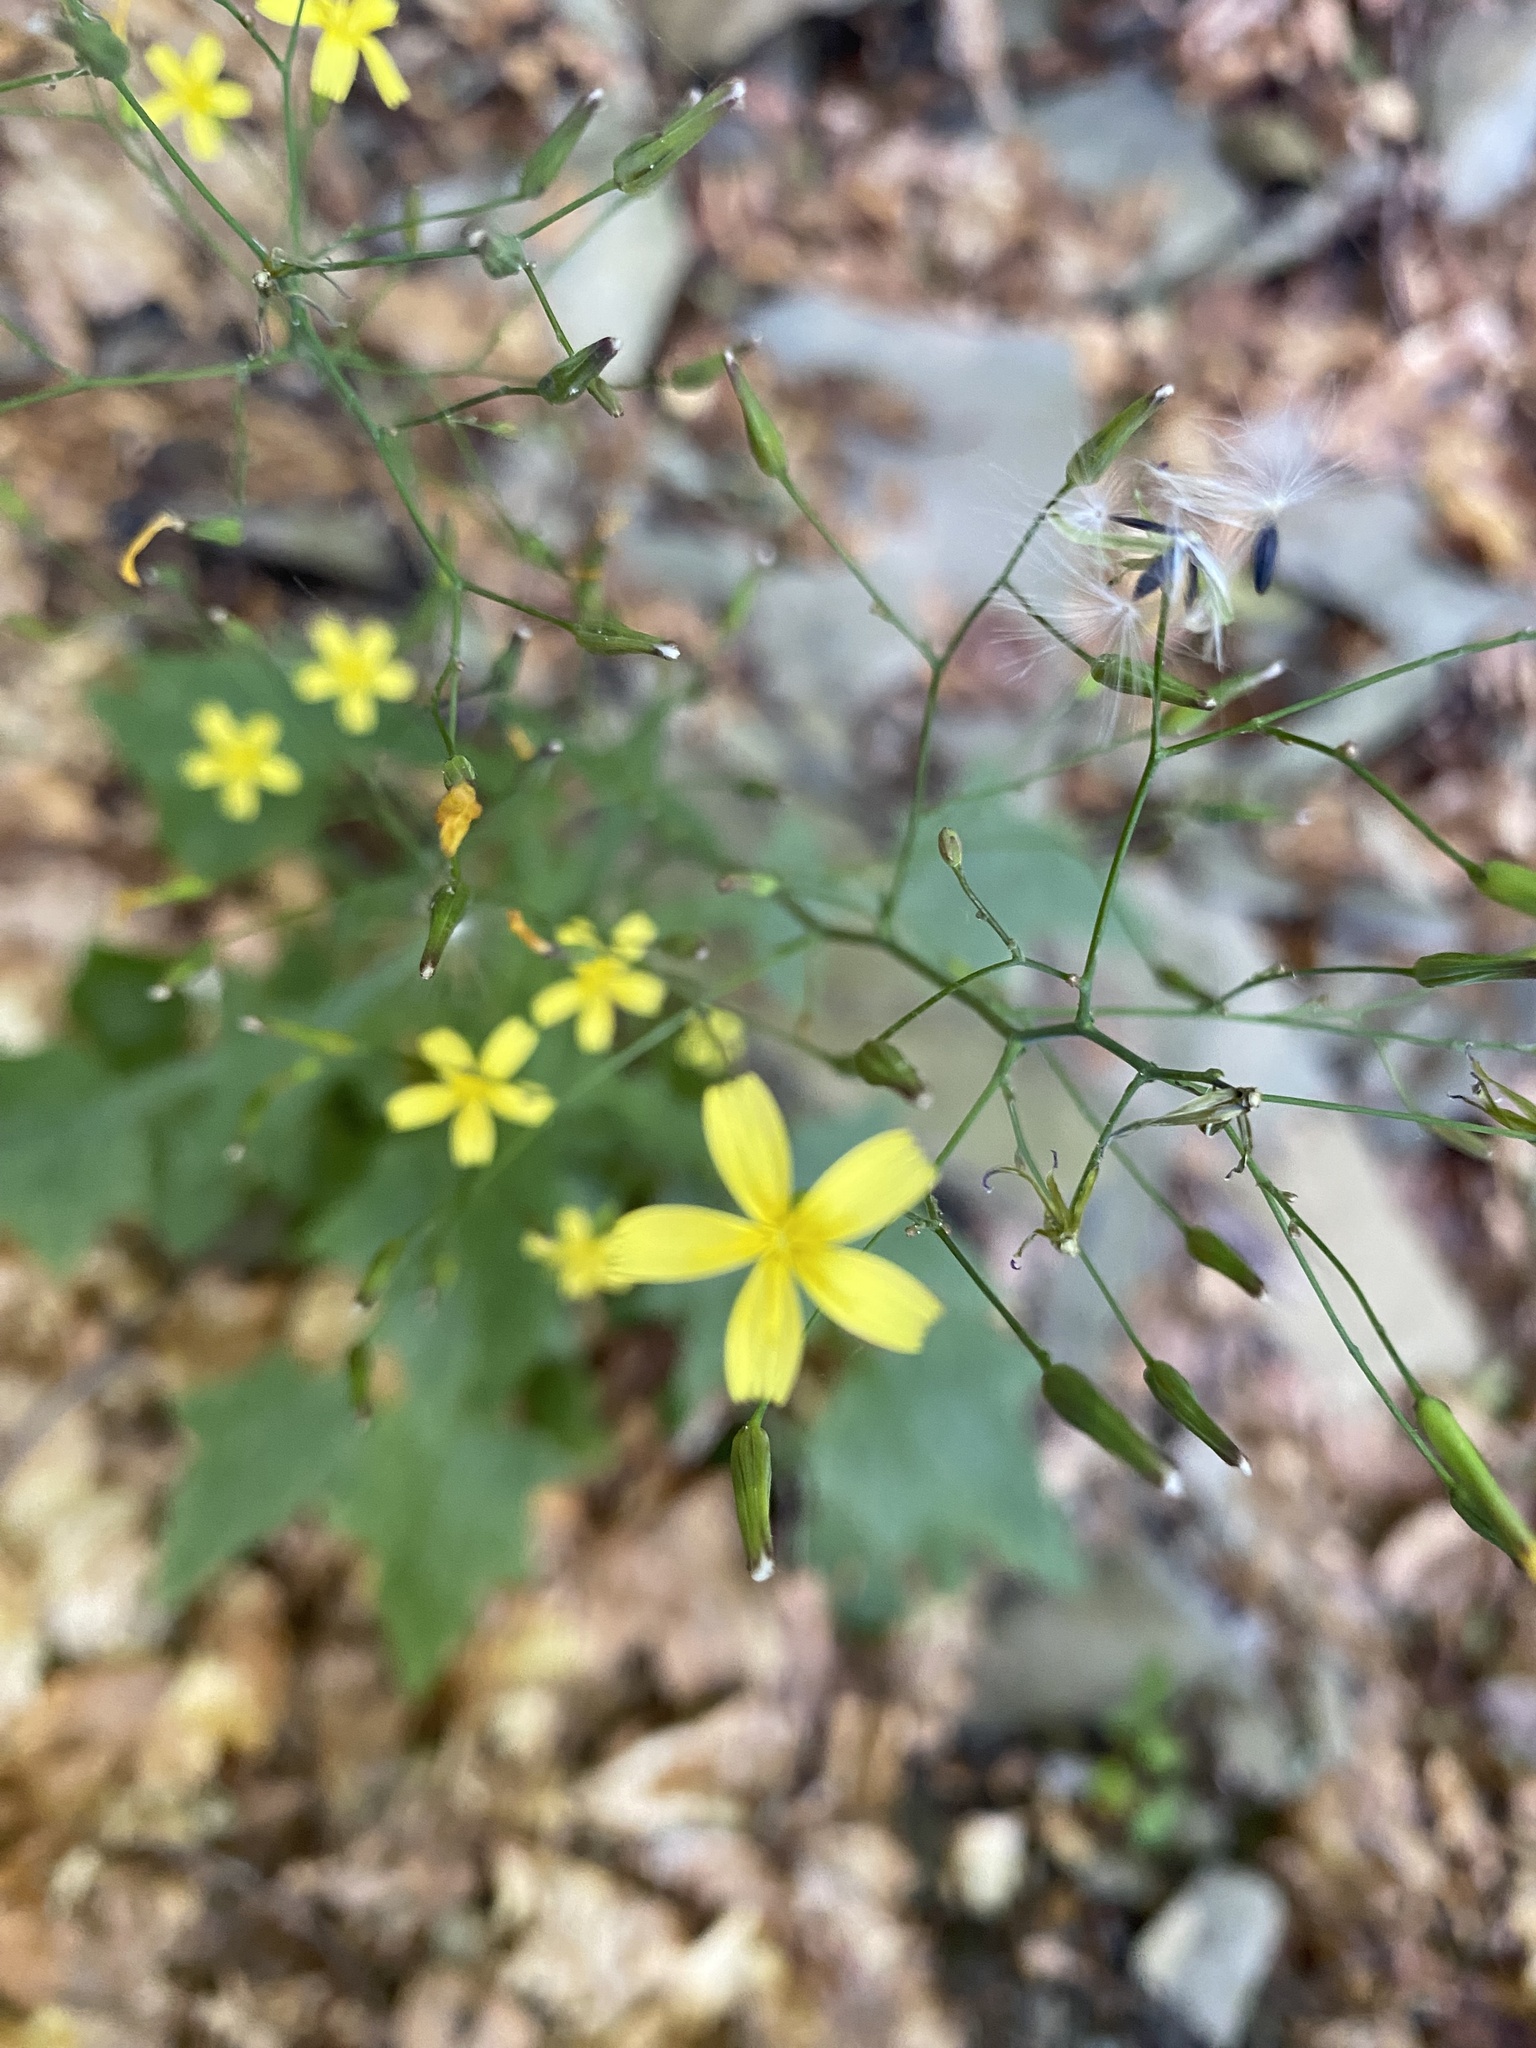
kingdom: Plantae
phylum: Tracheophyta
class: Magnoliopsida
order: Asterales
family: Asteraceae
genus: Mycelis
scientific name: Mycelis muralis
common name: Wall lettuce
